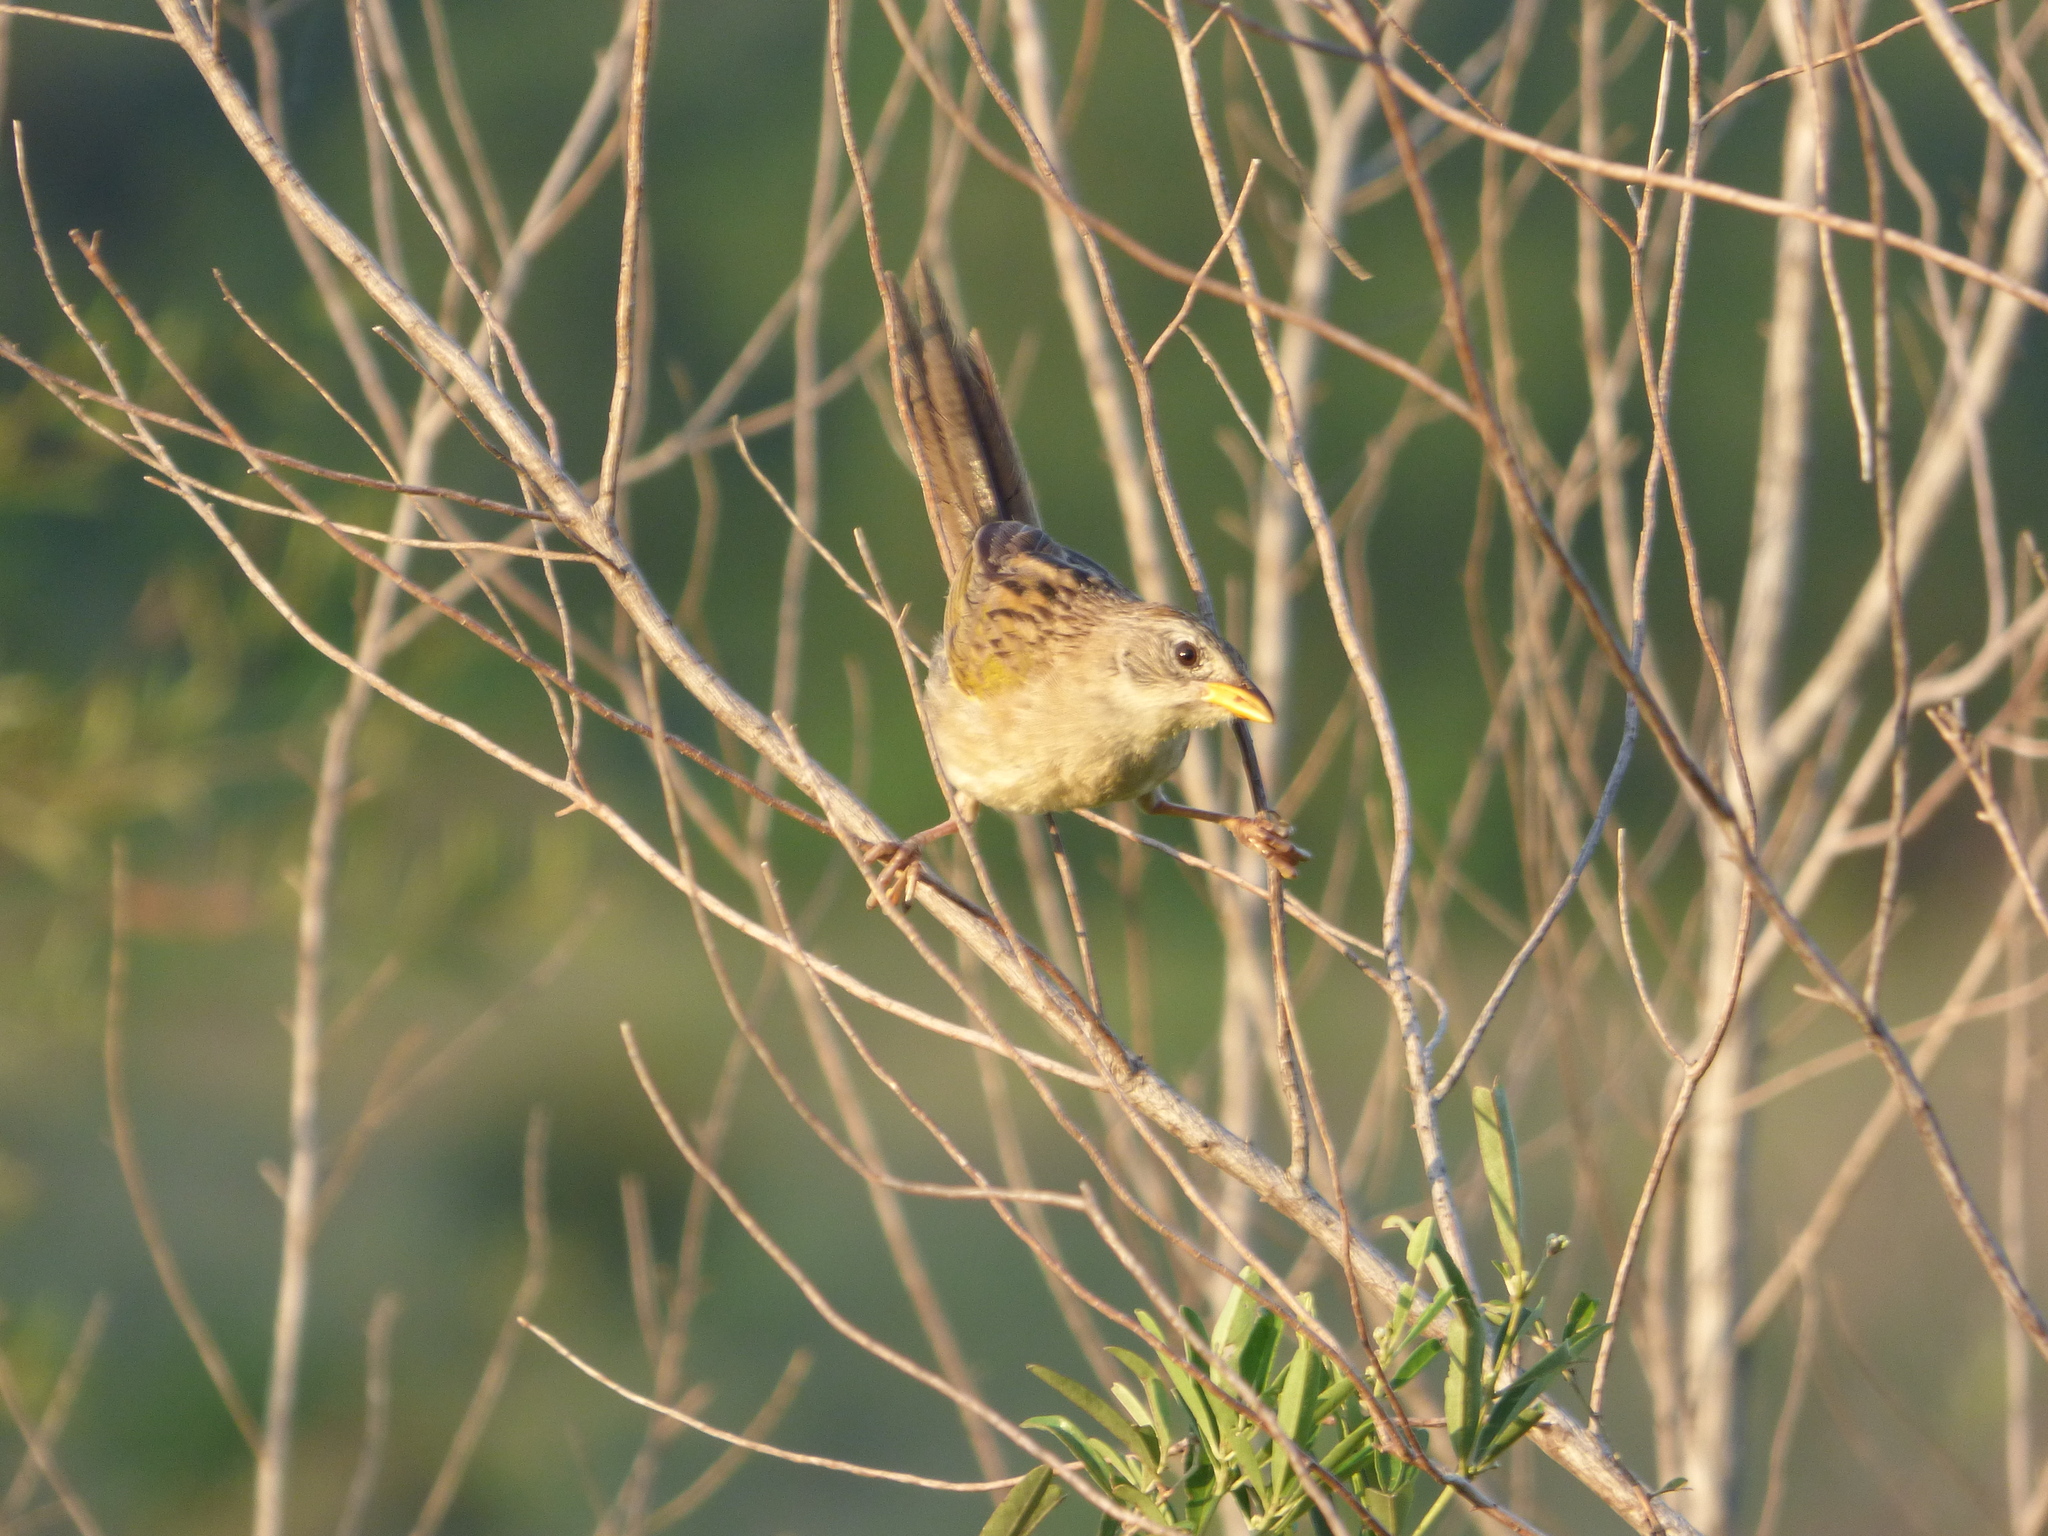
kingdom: Animalia
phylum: Chordata
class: Aves
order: Passeriformes
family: Thraupidae
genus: Emberizoides
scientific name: Emberizoides herbicola
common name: Wedge-tailed grass-finch
